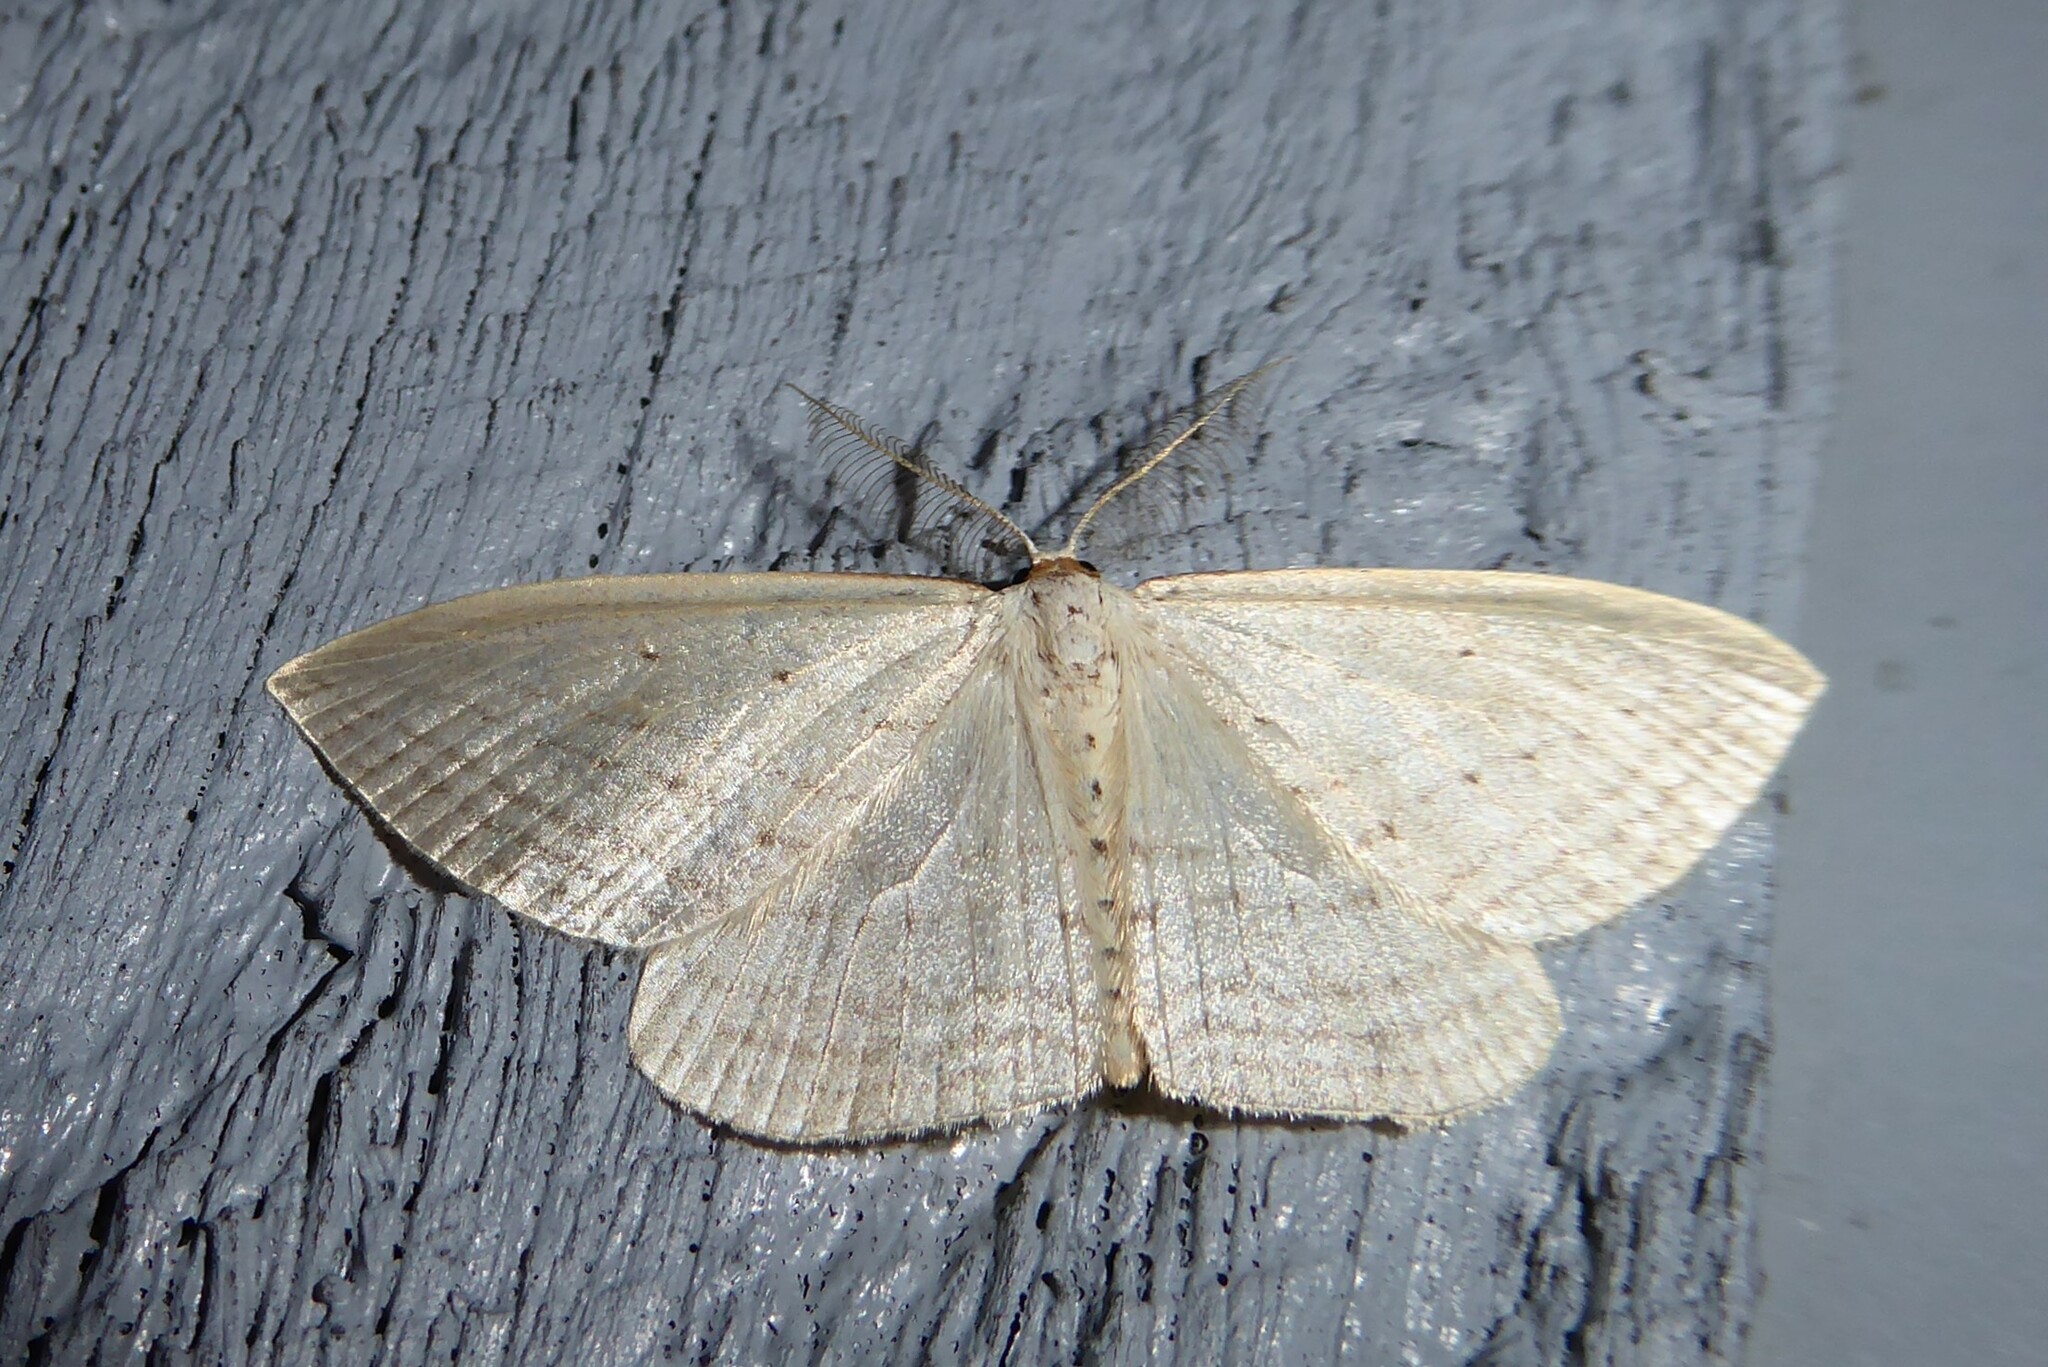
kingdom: Animalia
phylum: Arthropoda
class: Insecta
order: Lepidoptera
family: Geometridae
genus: Orthoclydon
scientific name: Orthoclydon praefectata
